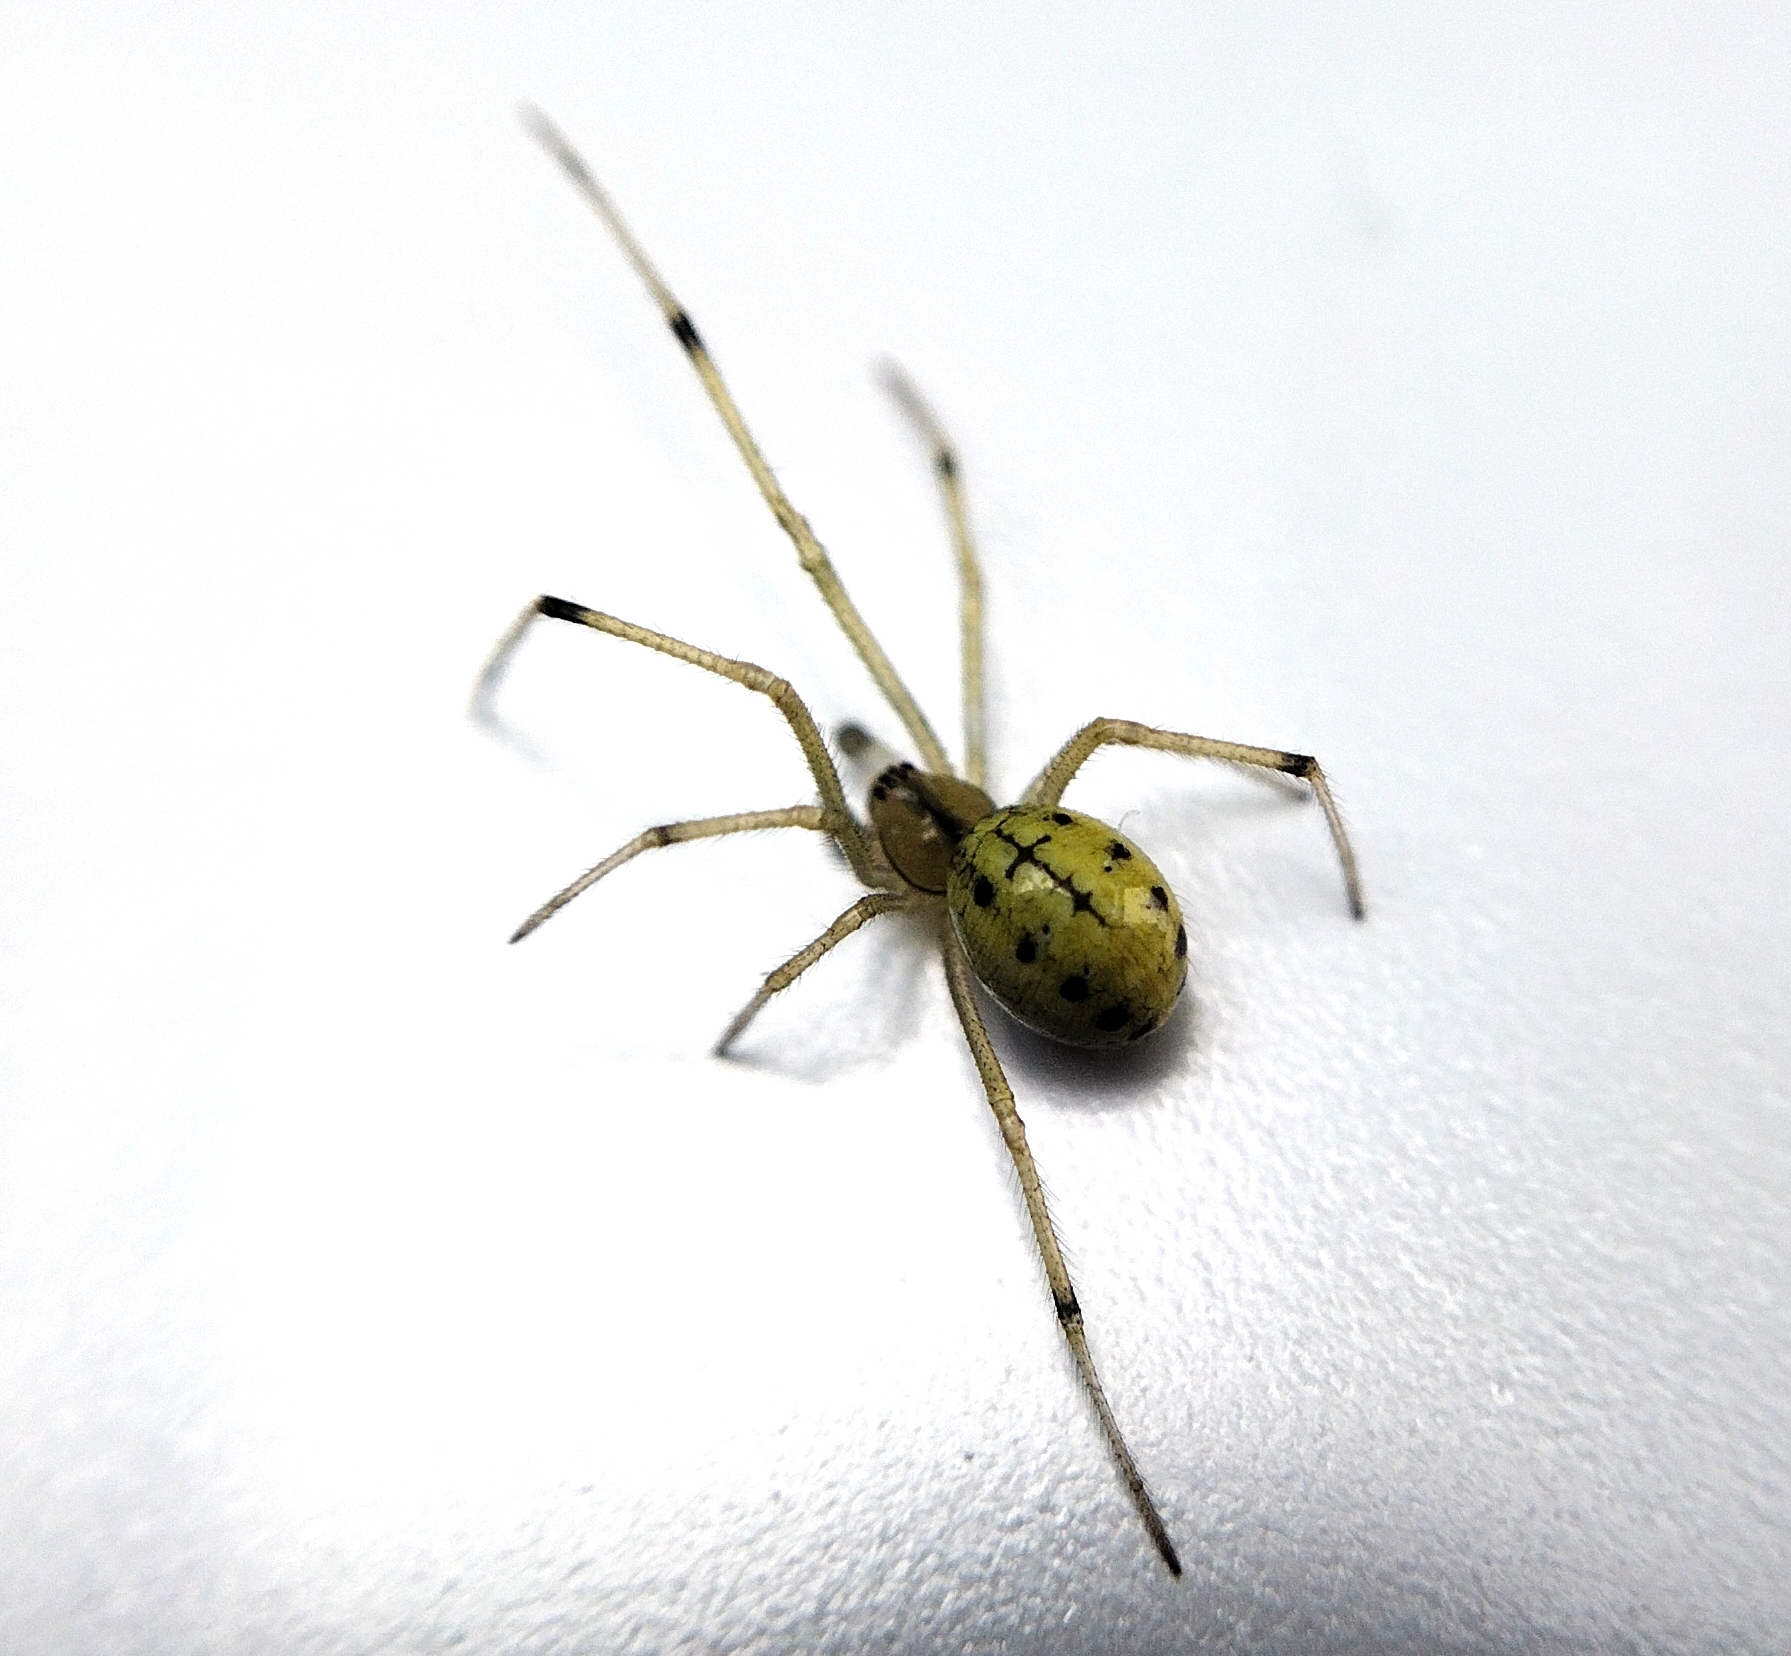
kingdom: Animalia
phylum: Arthropoda
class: Arachnida
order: Araneae
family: Theridiidae
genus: Enoplognatha
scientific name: Enoplognatha ovata
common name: Common candy-striped spider
